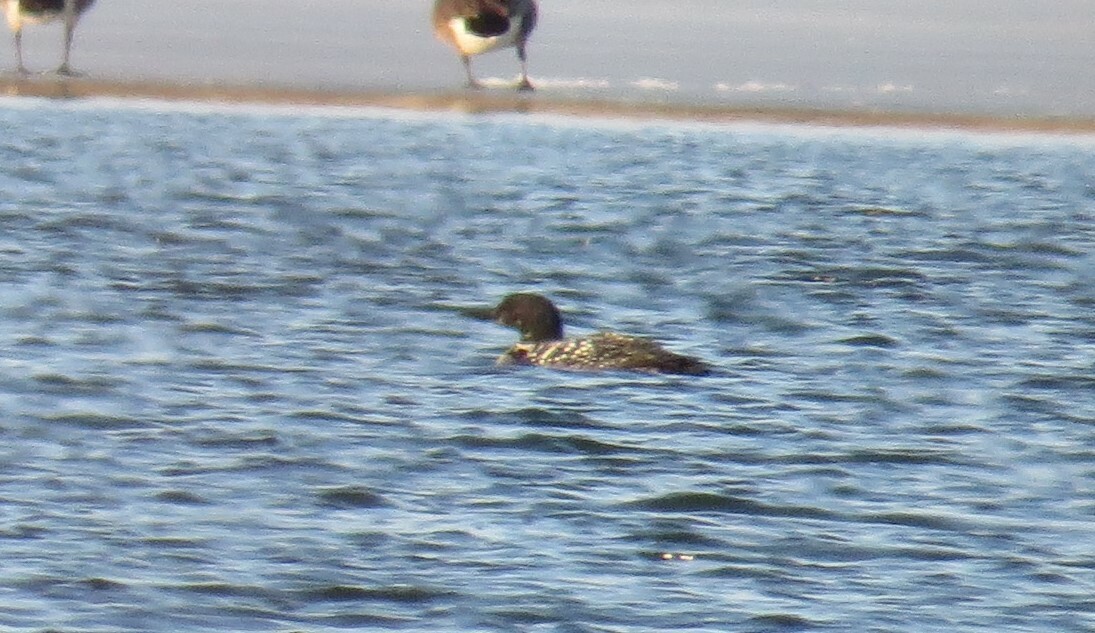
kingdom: Animalia
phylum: Chordata
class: Aves
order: Gaviiformes
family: Gaviidae
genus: Gavia
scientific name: Gavia immer
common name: Common loon
